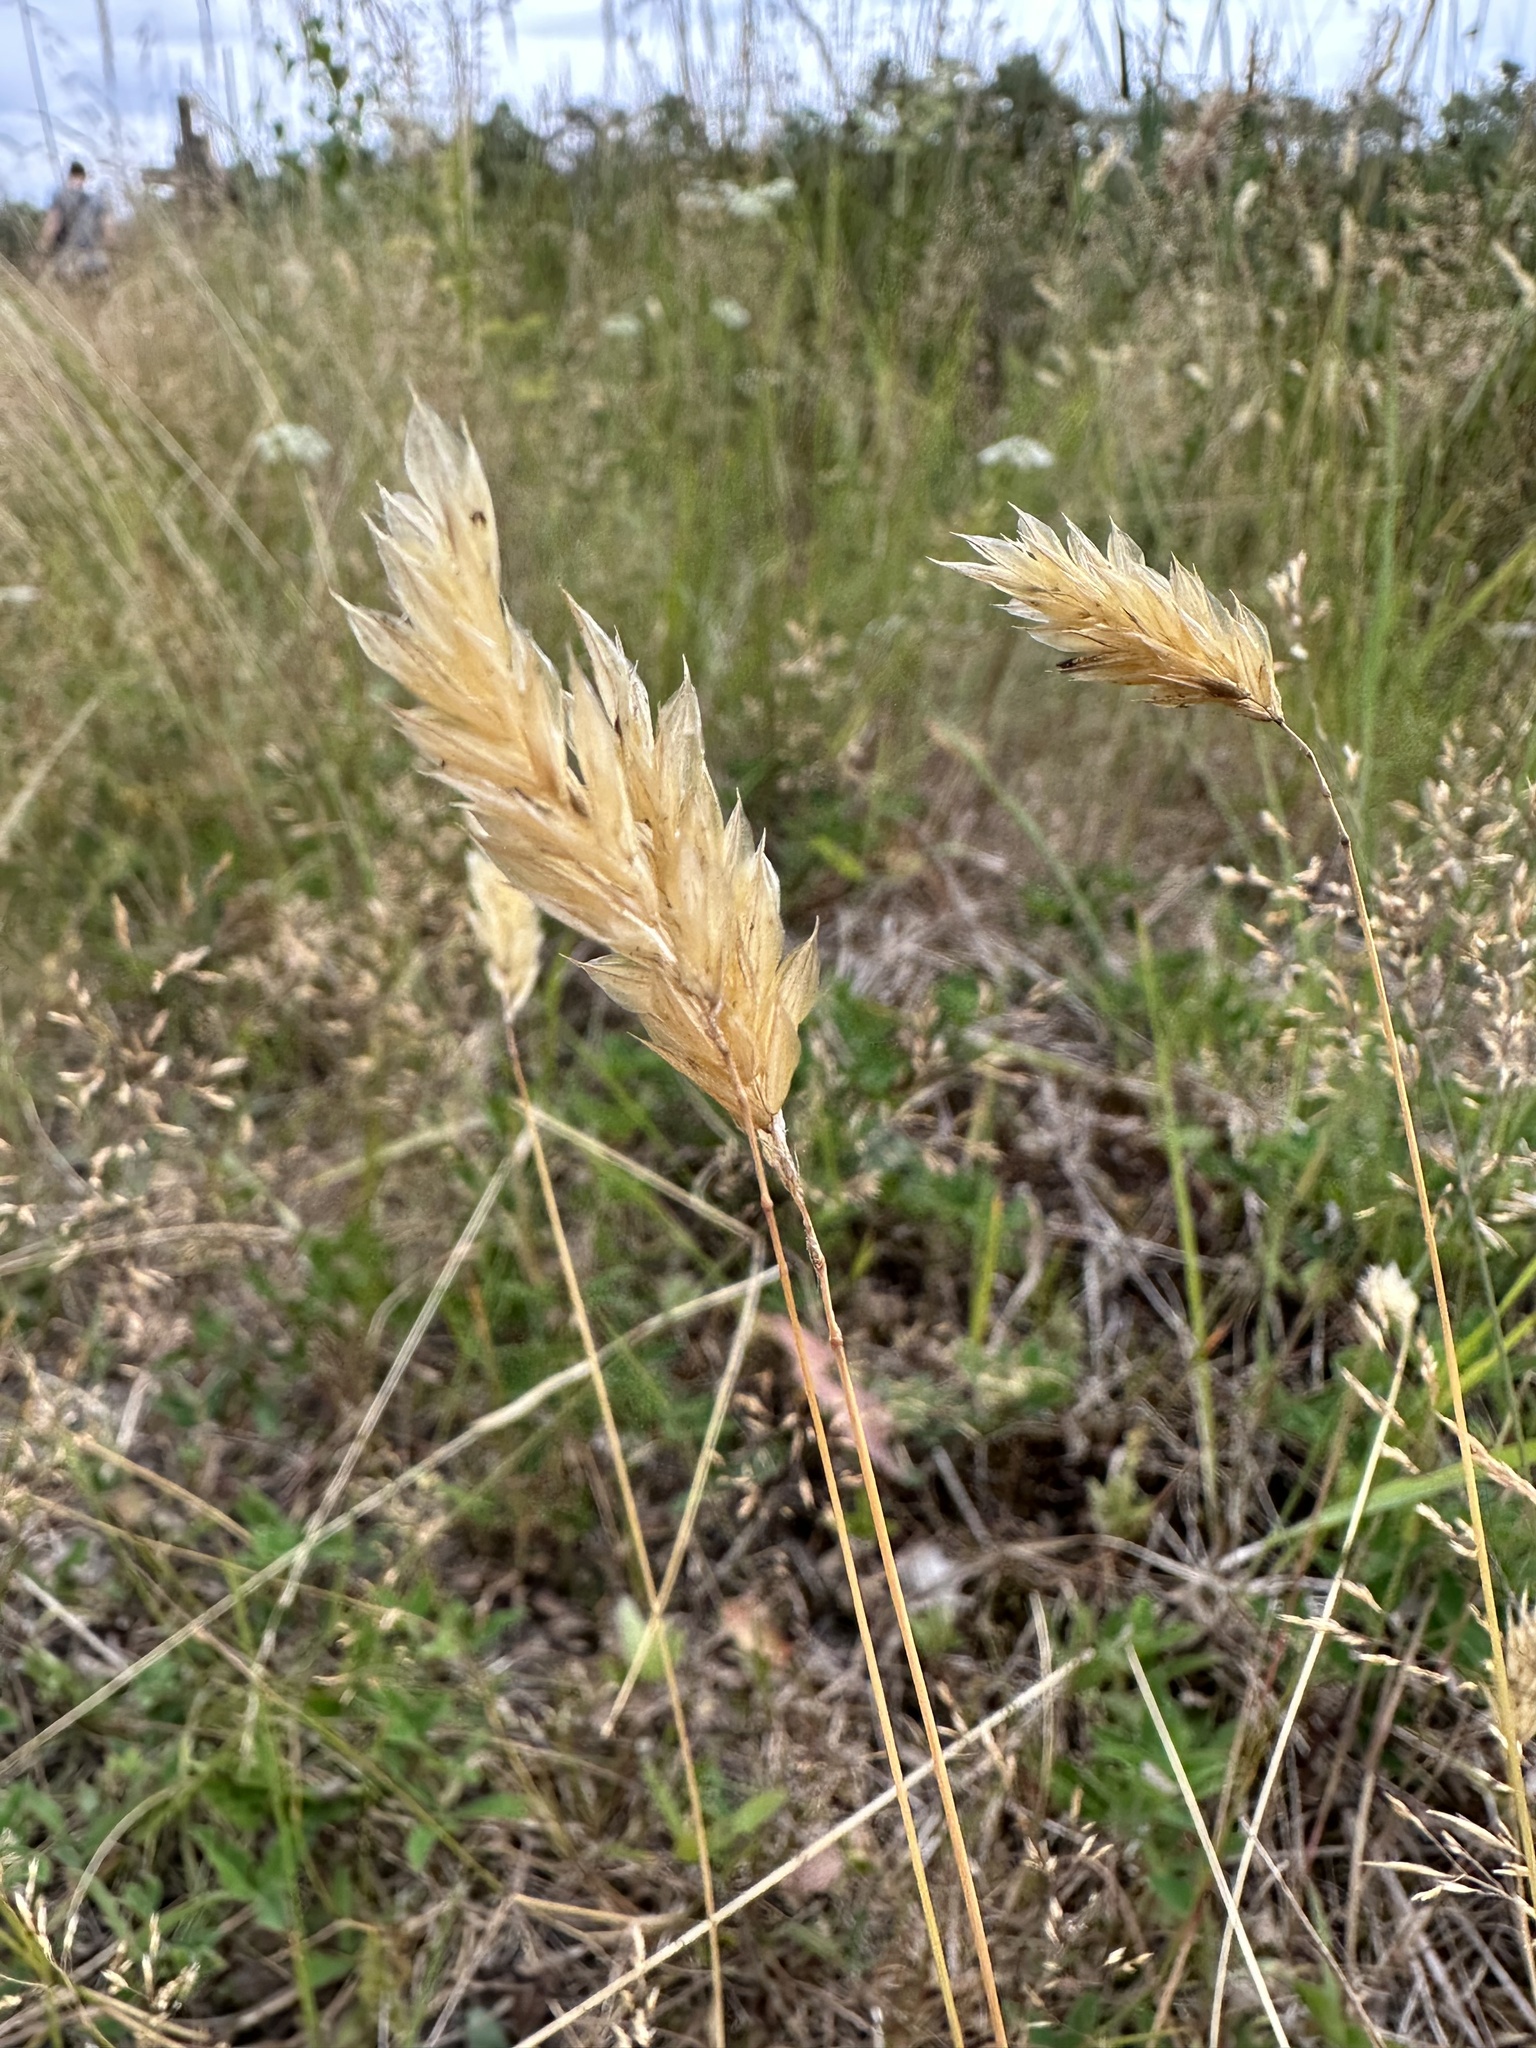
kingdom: Plantae
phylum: Tracheophyta
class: Liliopsida
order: Poales
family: Poaceae
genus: Anthoxanthum
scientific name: Anthoxanthum odoratum
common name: Sweet vernalgrass
